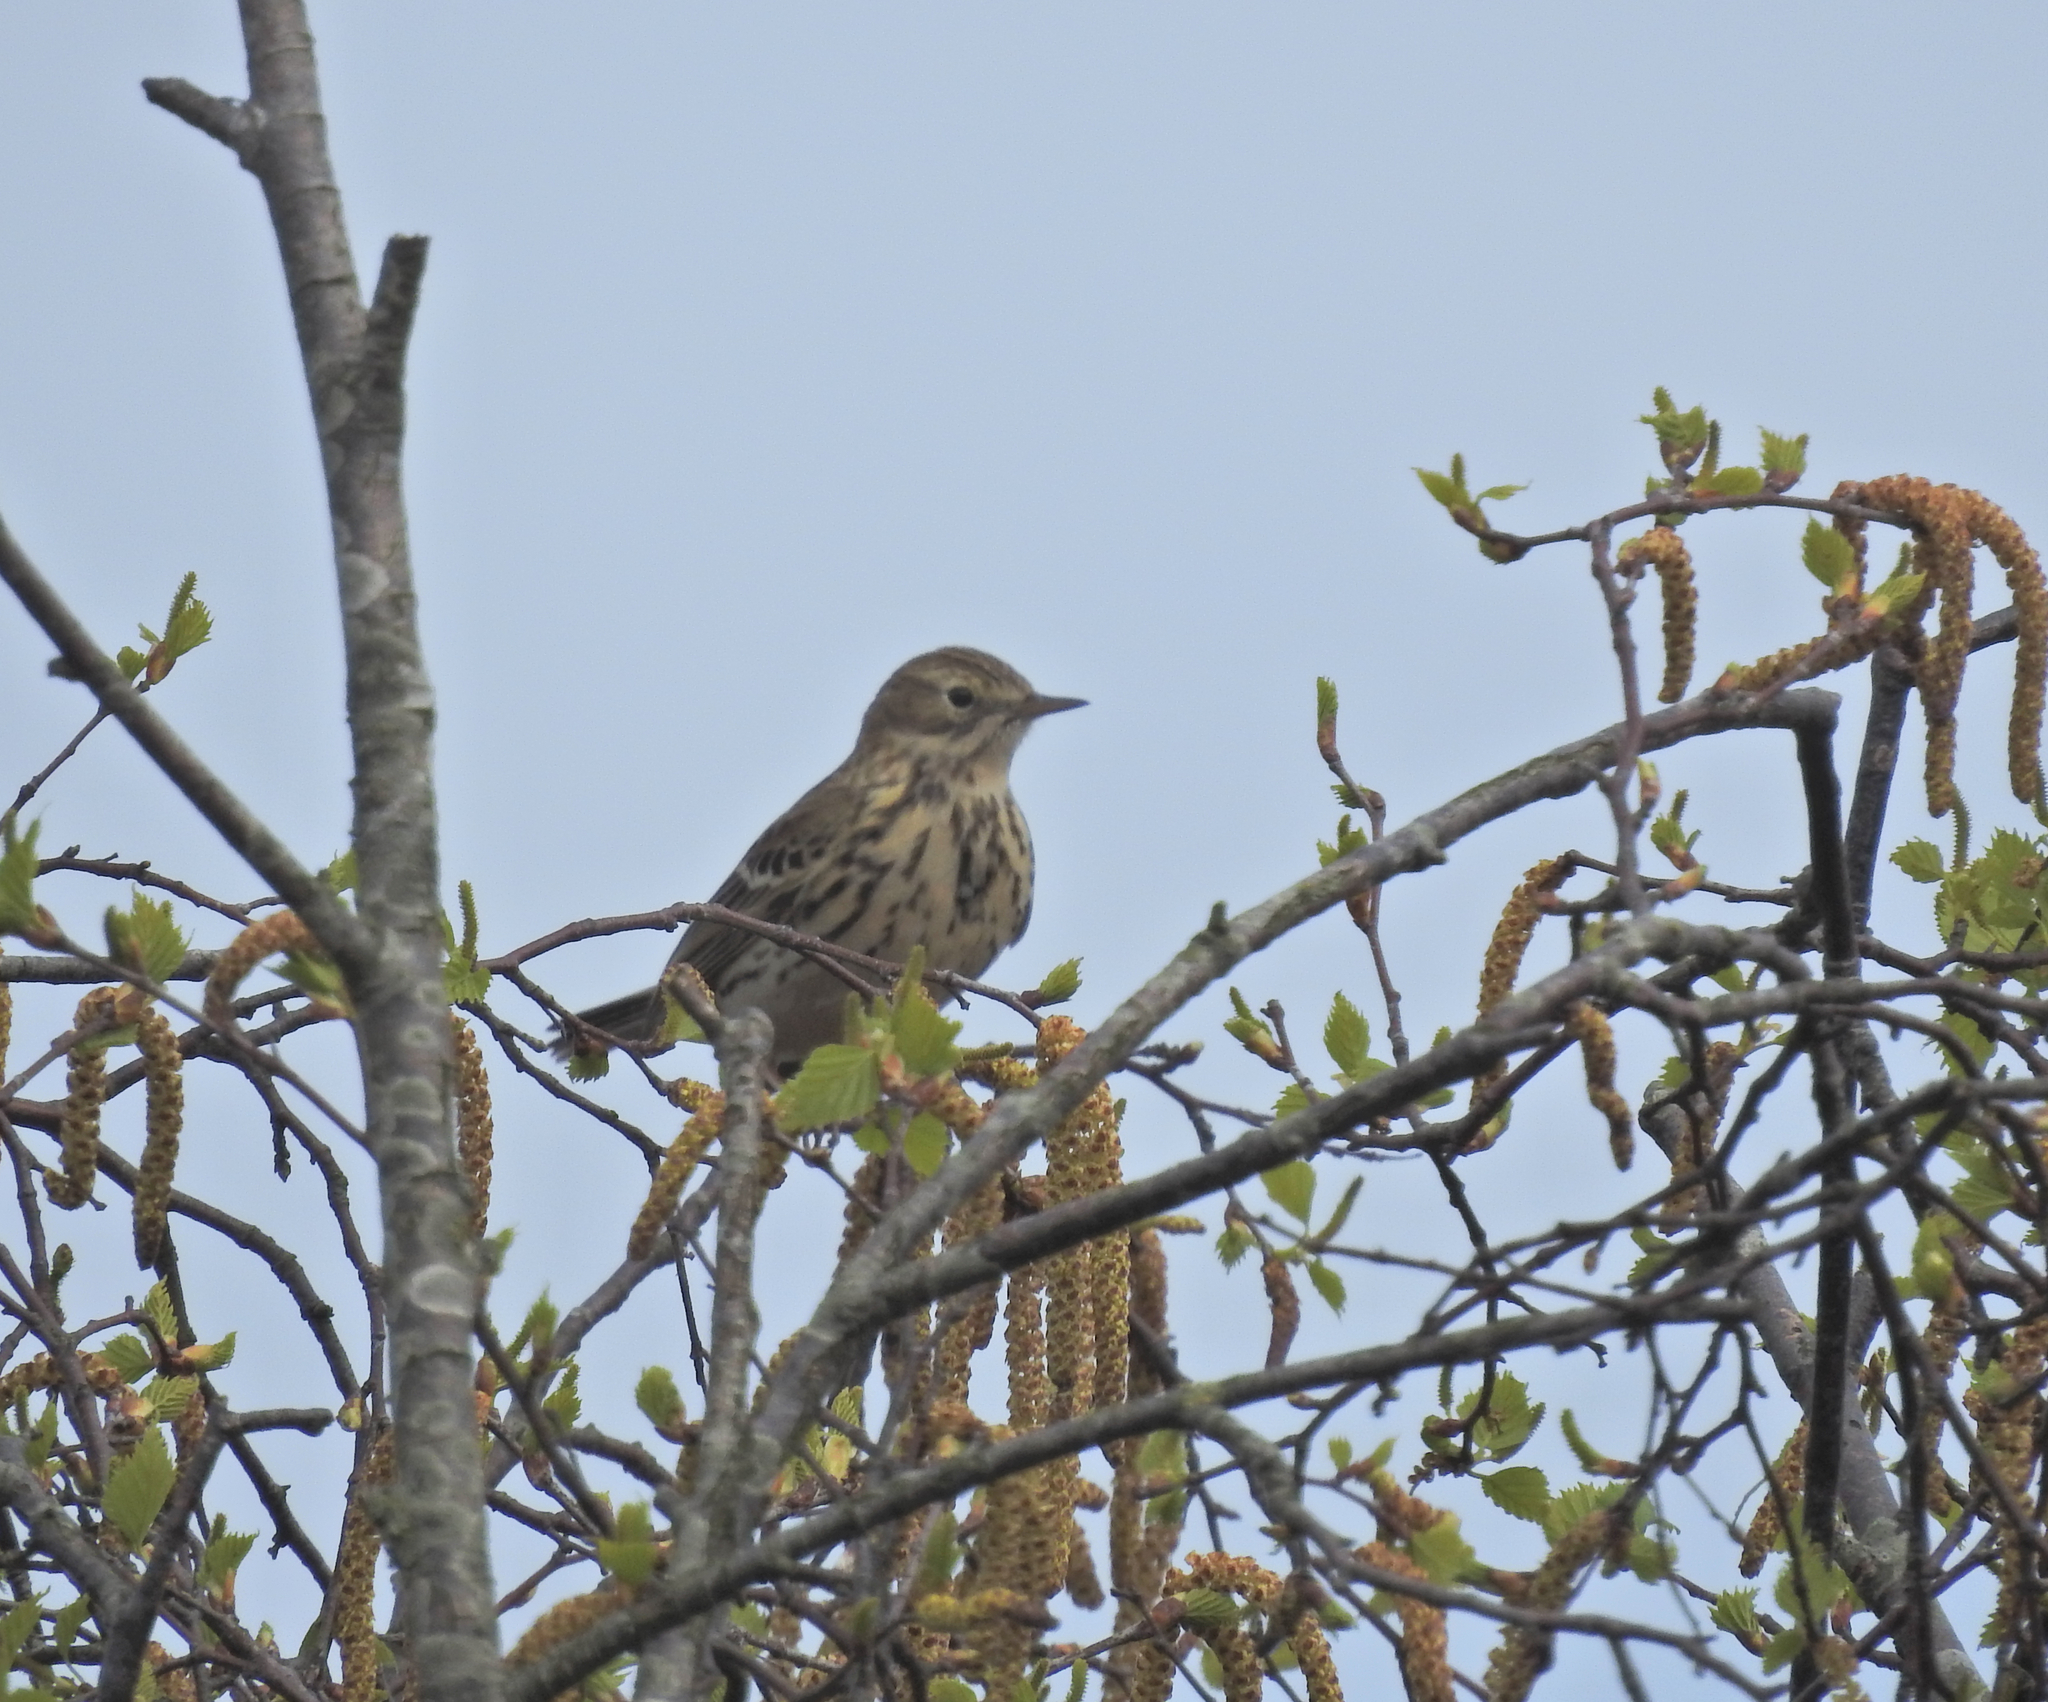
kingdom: Animalia
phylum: Chordata
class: Aves
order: Passeriformes
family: Motacillidae
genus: Anthus
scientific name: Anthus pratensis
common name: Meadow pipit
